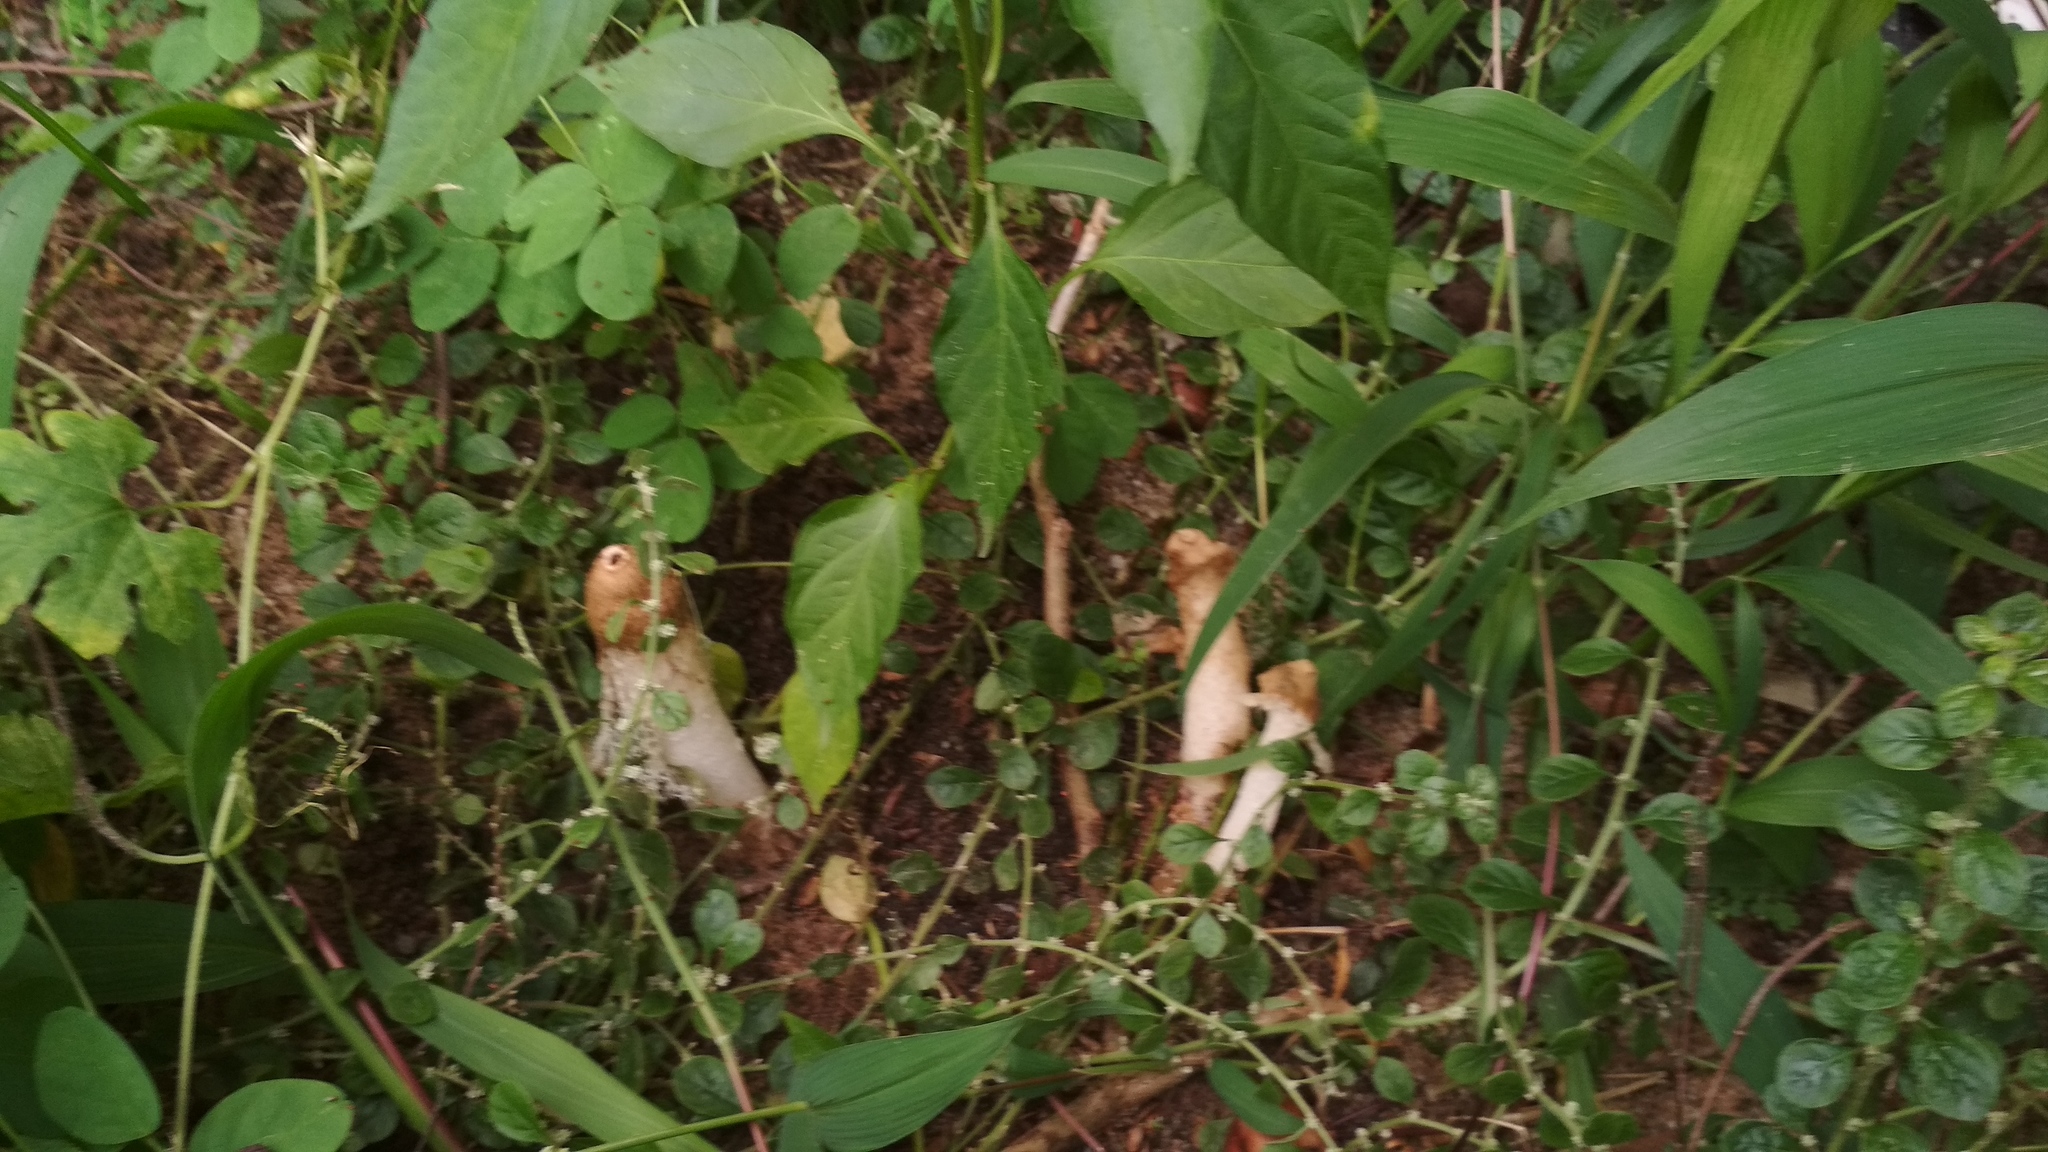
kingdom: Fungi
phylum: Basidiomycota
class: Agaricomycetes
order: Phallales
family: Phallaceae
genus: Phallus
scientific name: Phallus merulinus
